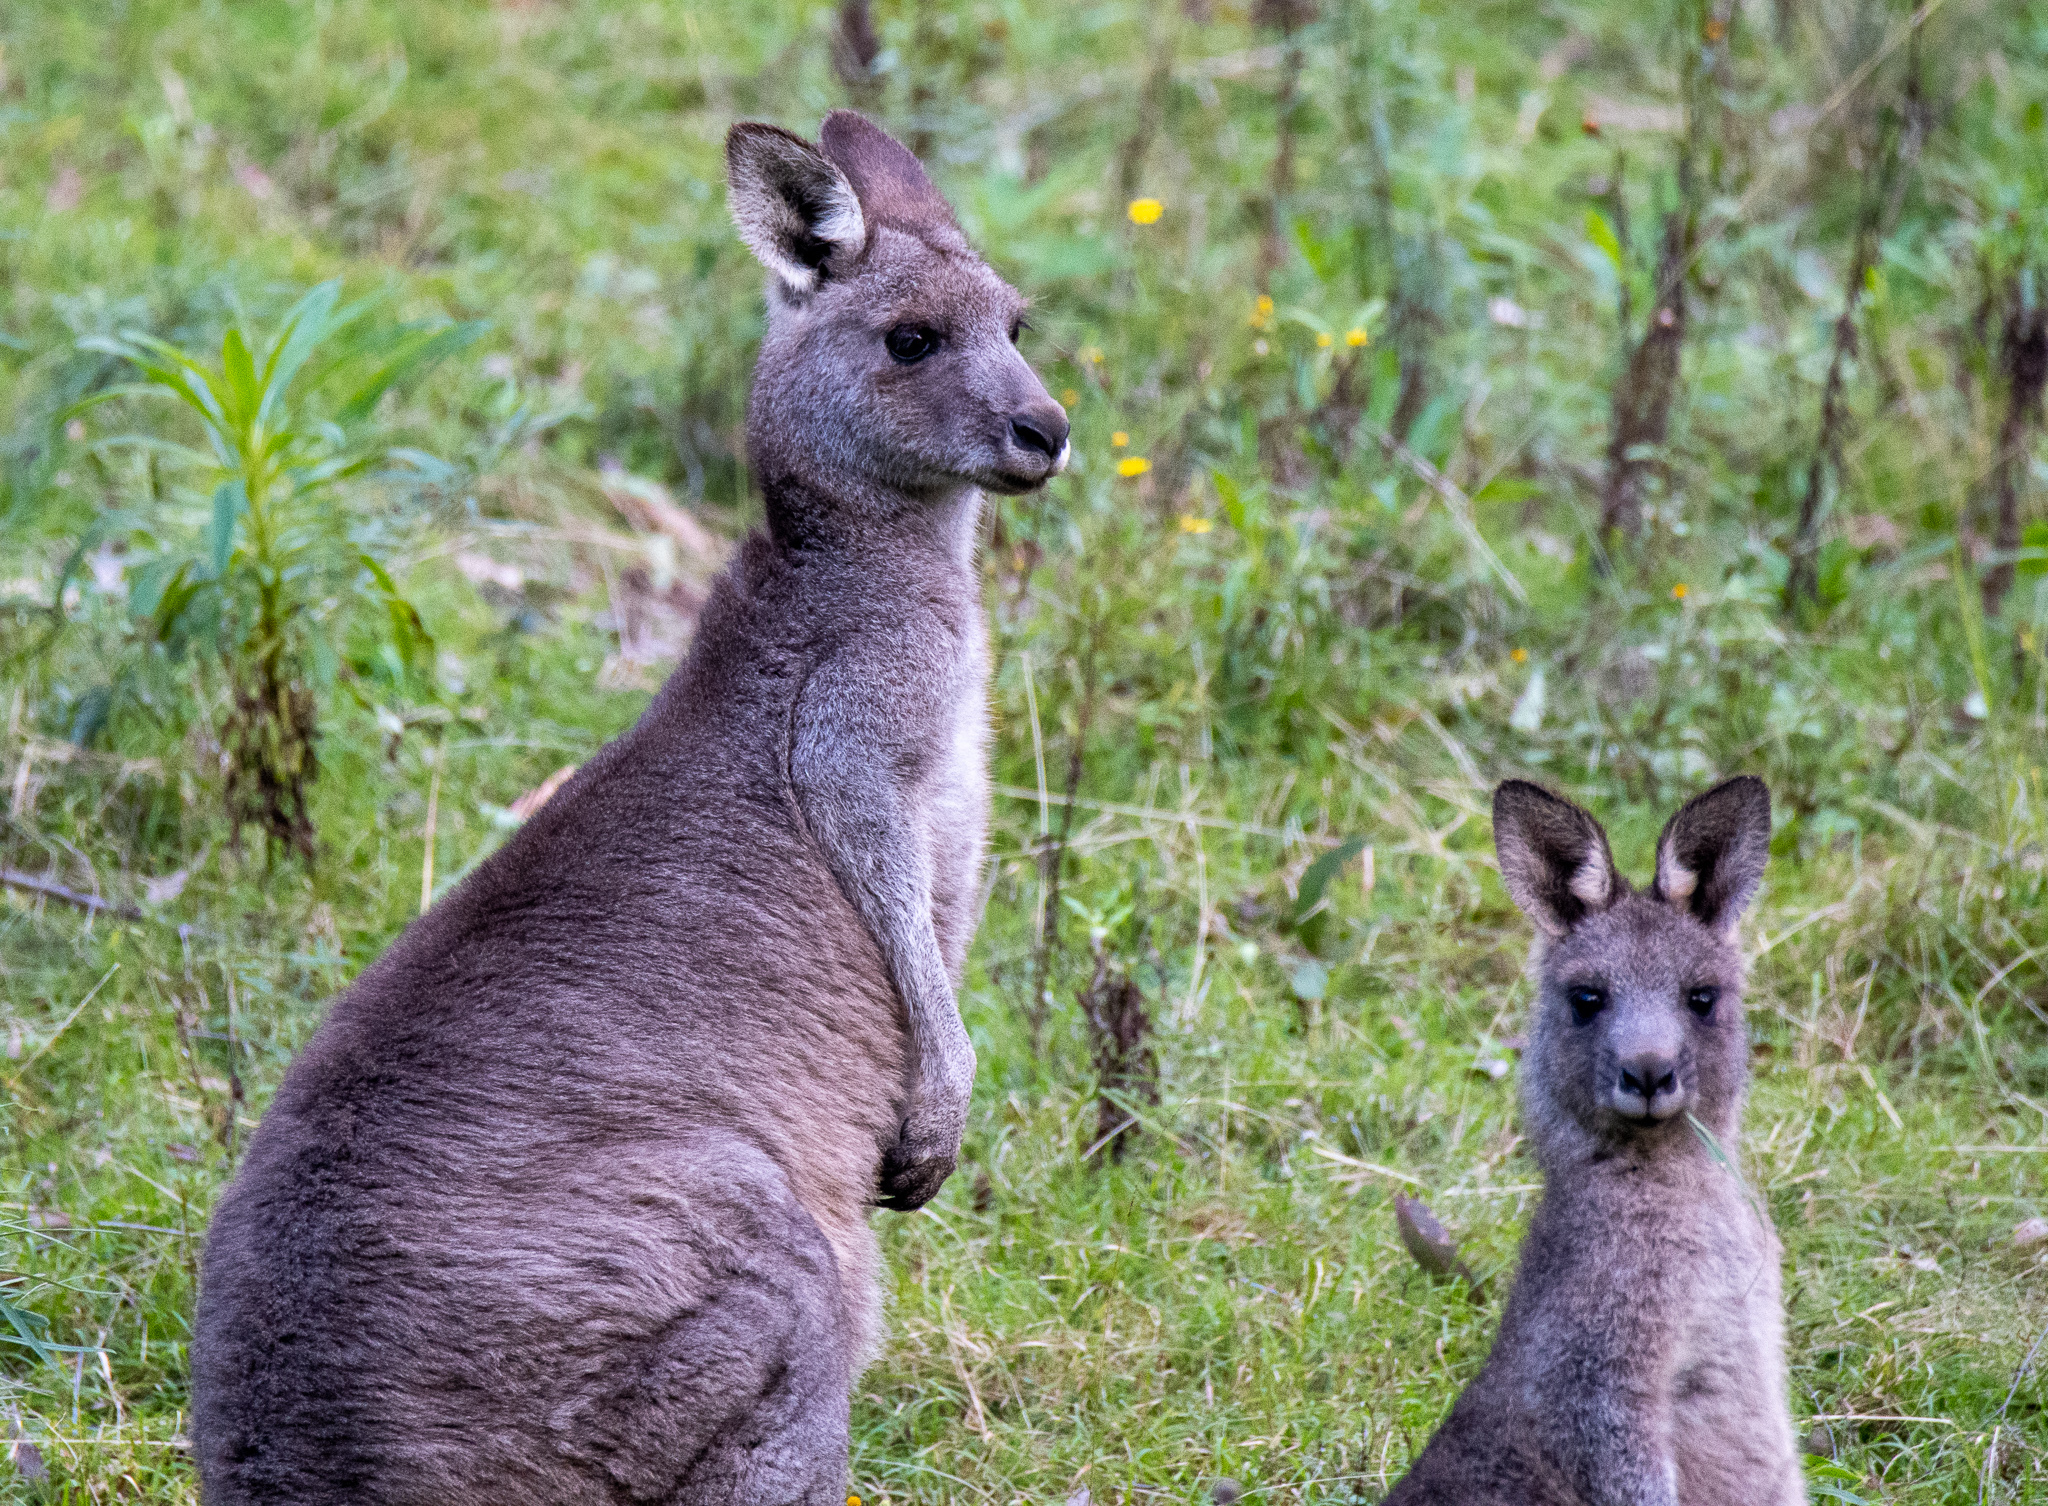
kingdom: Animalia
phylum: Chordata
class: Mammalia
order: Diprotodontia
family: Macropodidae
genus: Macropus
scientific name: Macropus giganteus
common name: Eastern grey kangaroo
